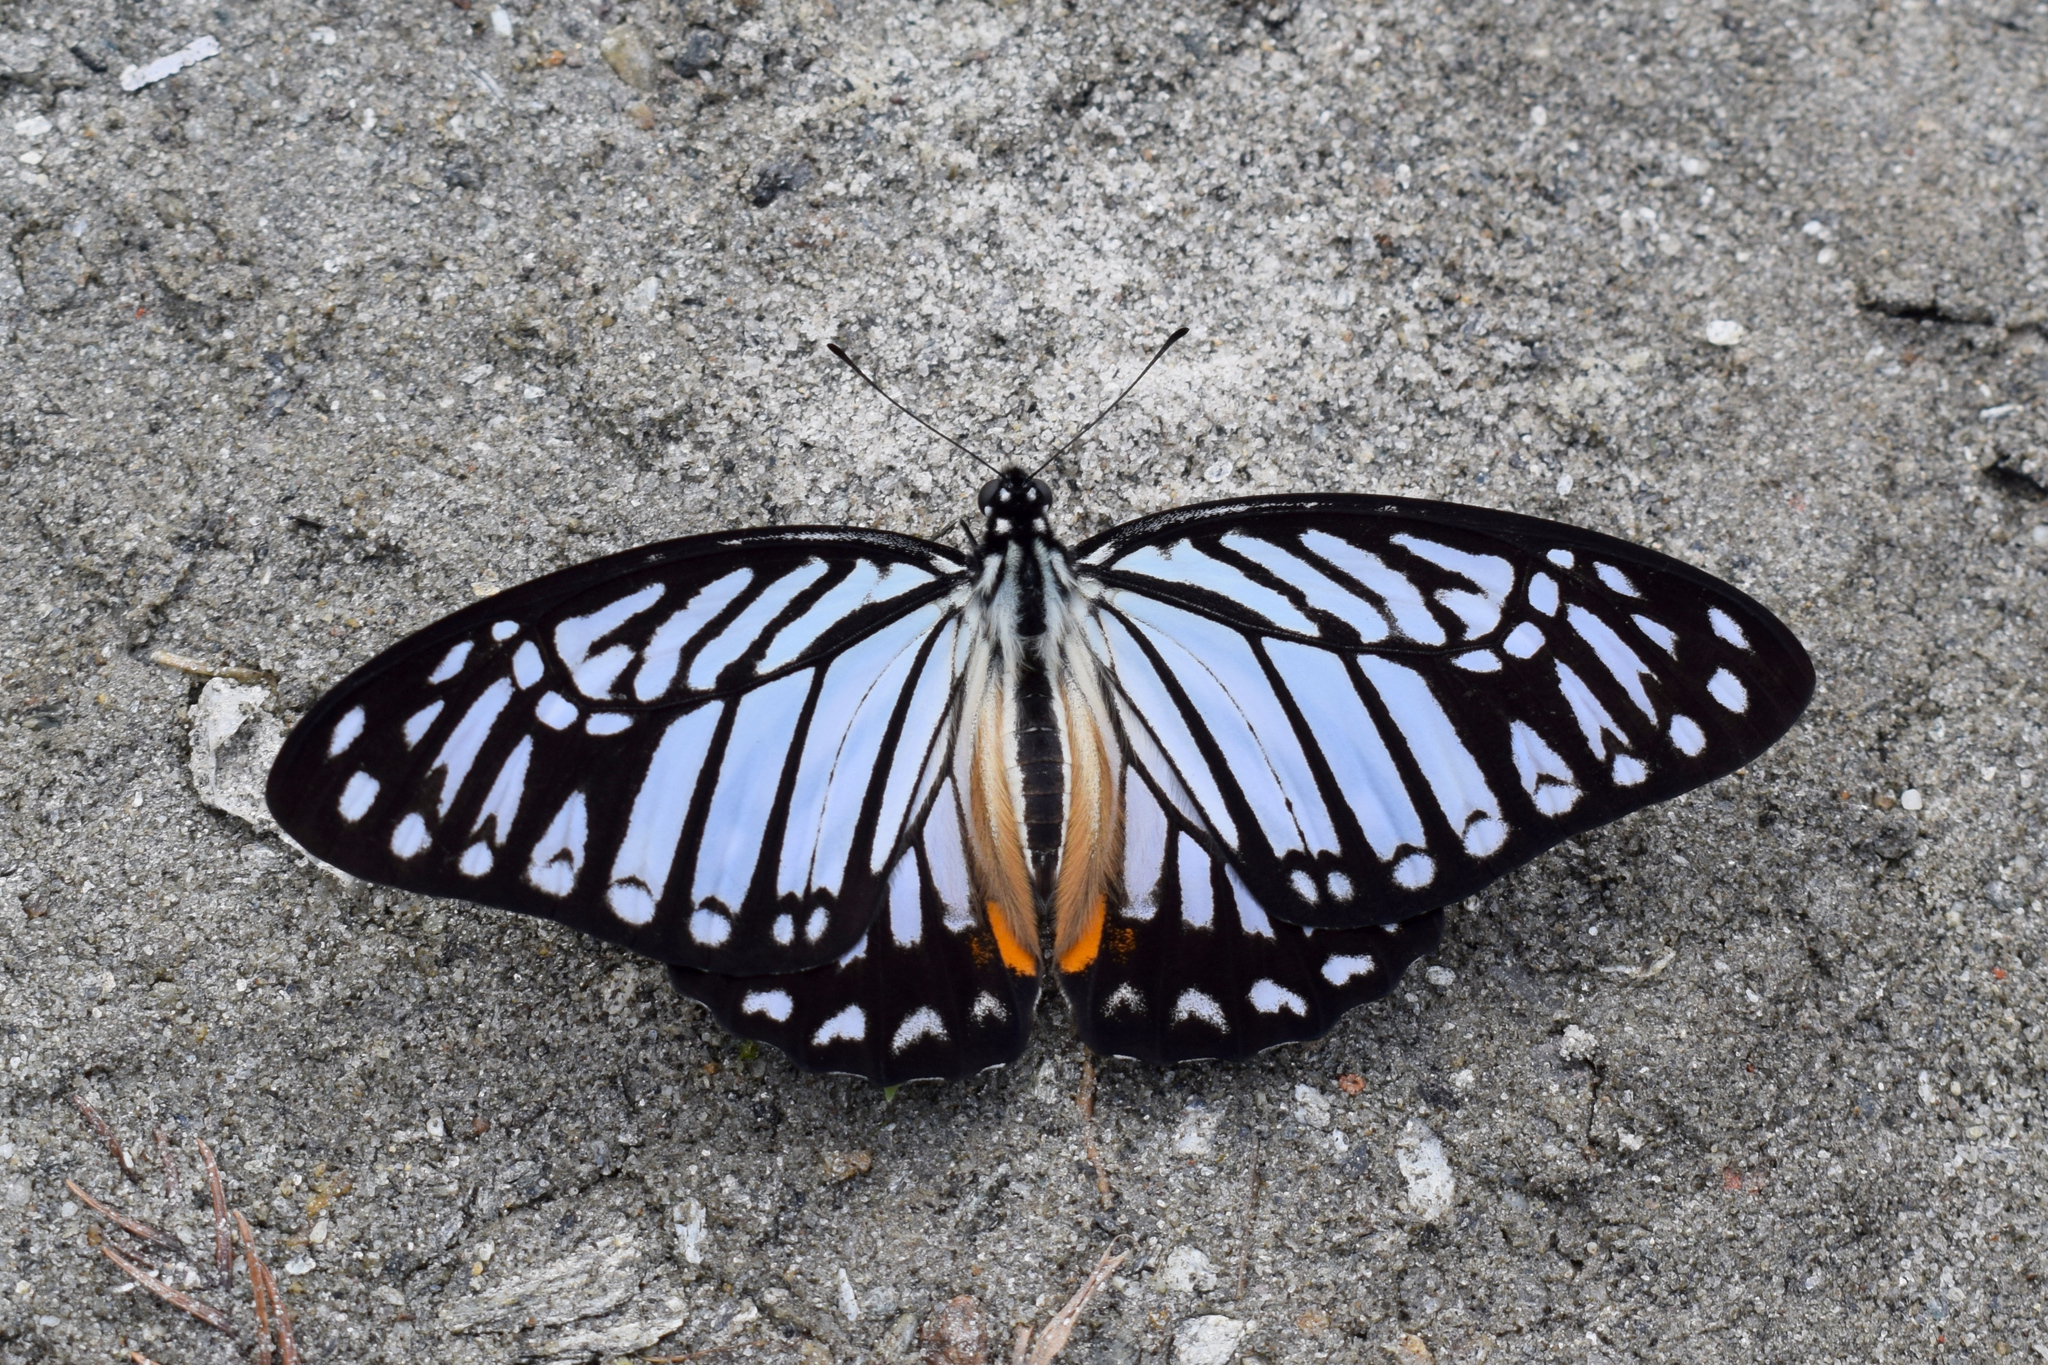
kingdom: Animalia
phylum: Arthropoda
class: Insecta
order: Lepidoptera
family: Papilionidae
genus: Graphium
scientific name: Graphium xenocles
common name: Great zebra
